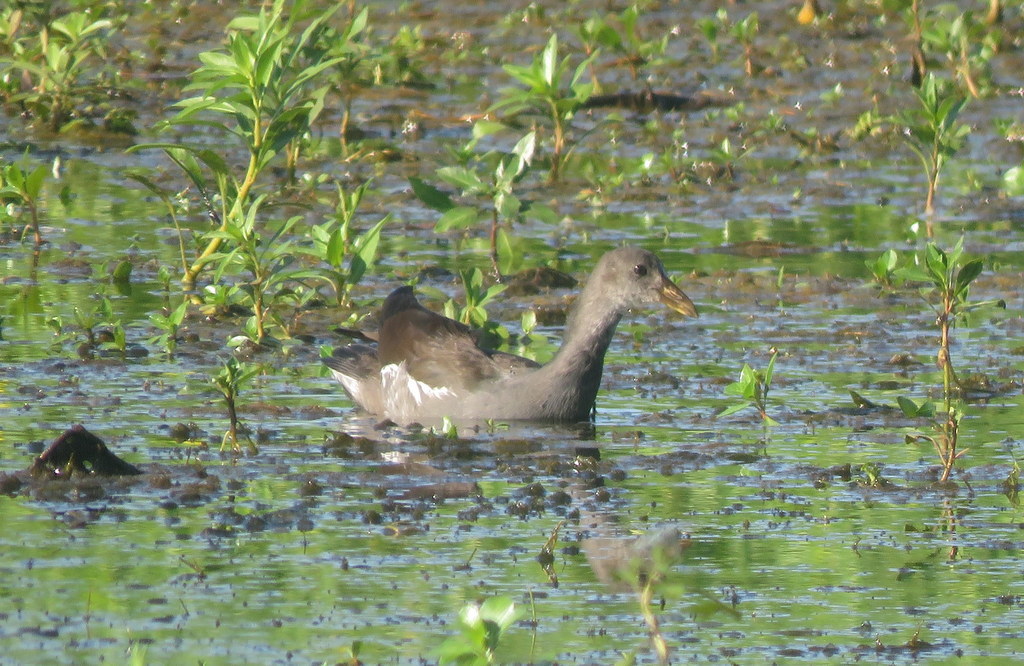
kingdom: Animalia
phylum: Chordata
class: Aves
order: Gruiformes
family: Rallidae
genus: Gallinula
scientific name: Gallinula chloropus
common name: Common moorhen
